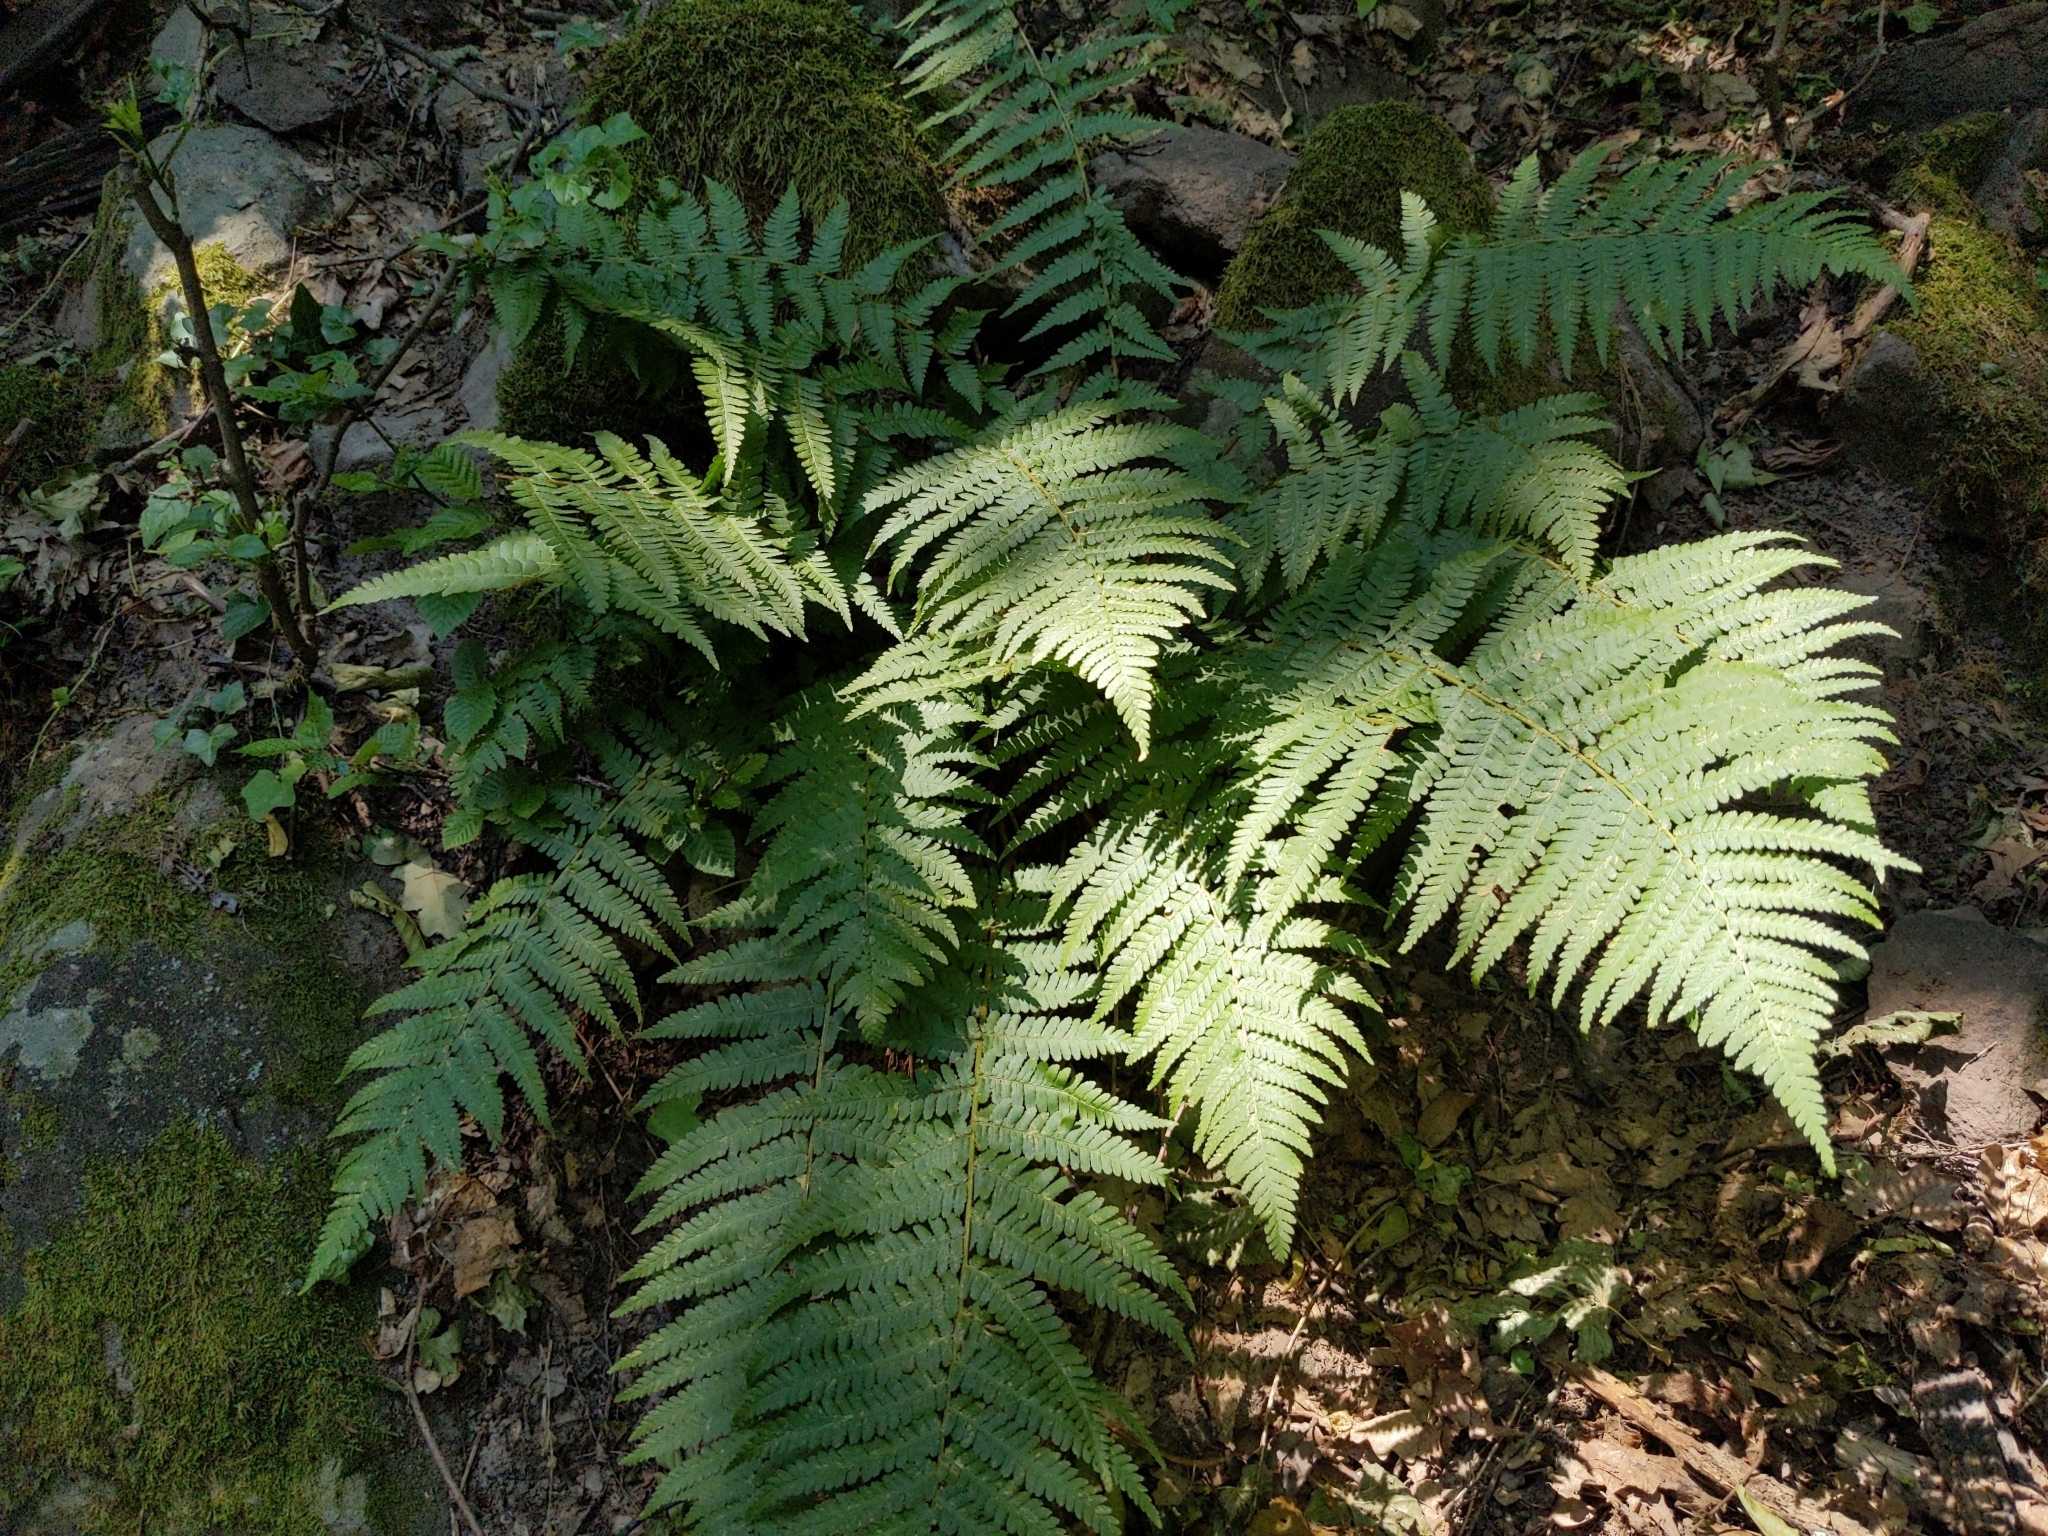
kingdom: Plantae
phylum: Tracheophyta
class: Polypodiopsida
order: Polypodiales
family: Dryopteridaceae
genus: Dryopteris
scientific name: Dryopteris filix-mas
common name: Male fern
